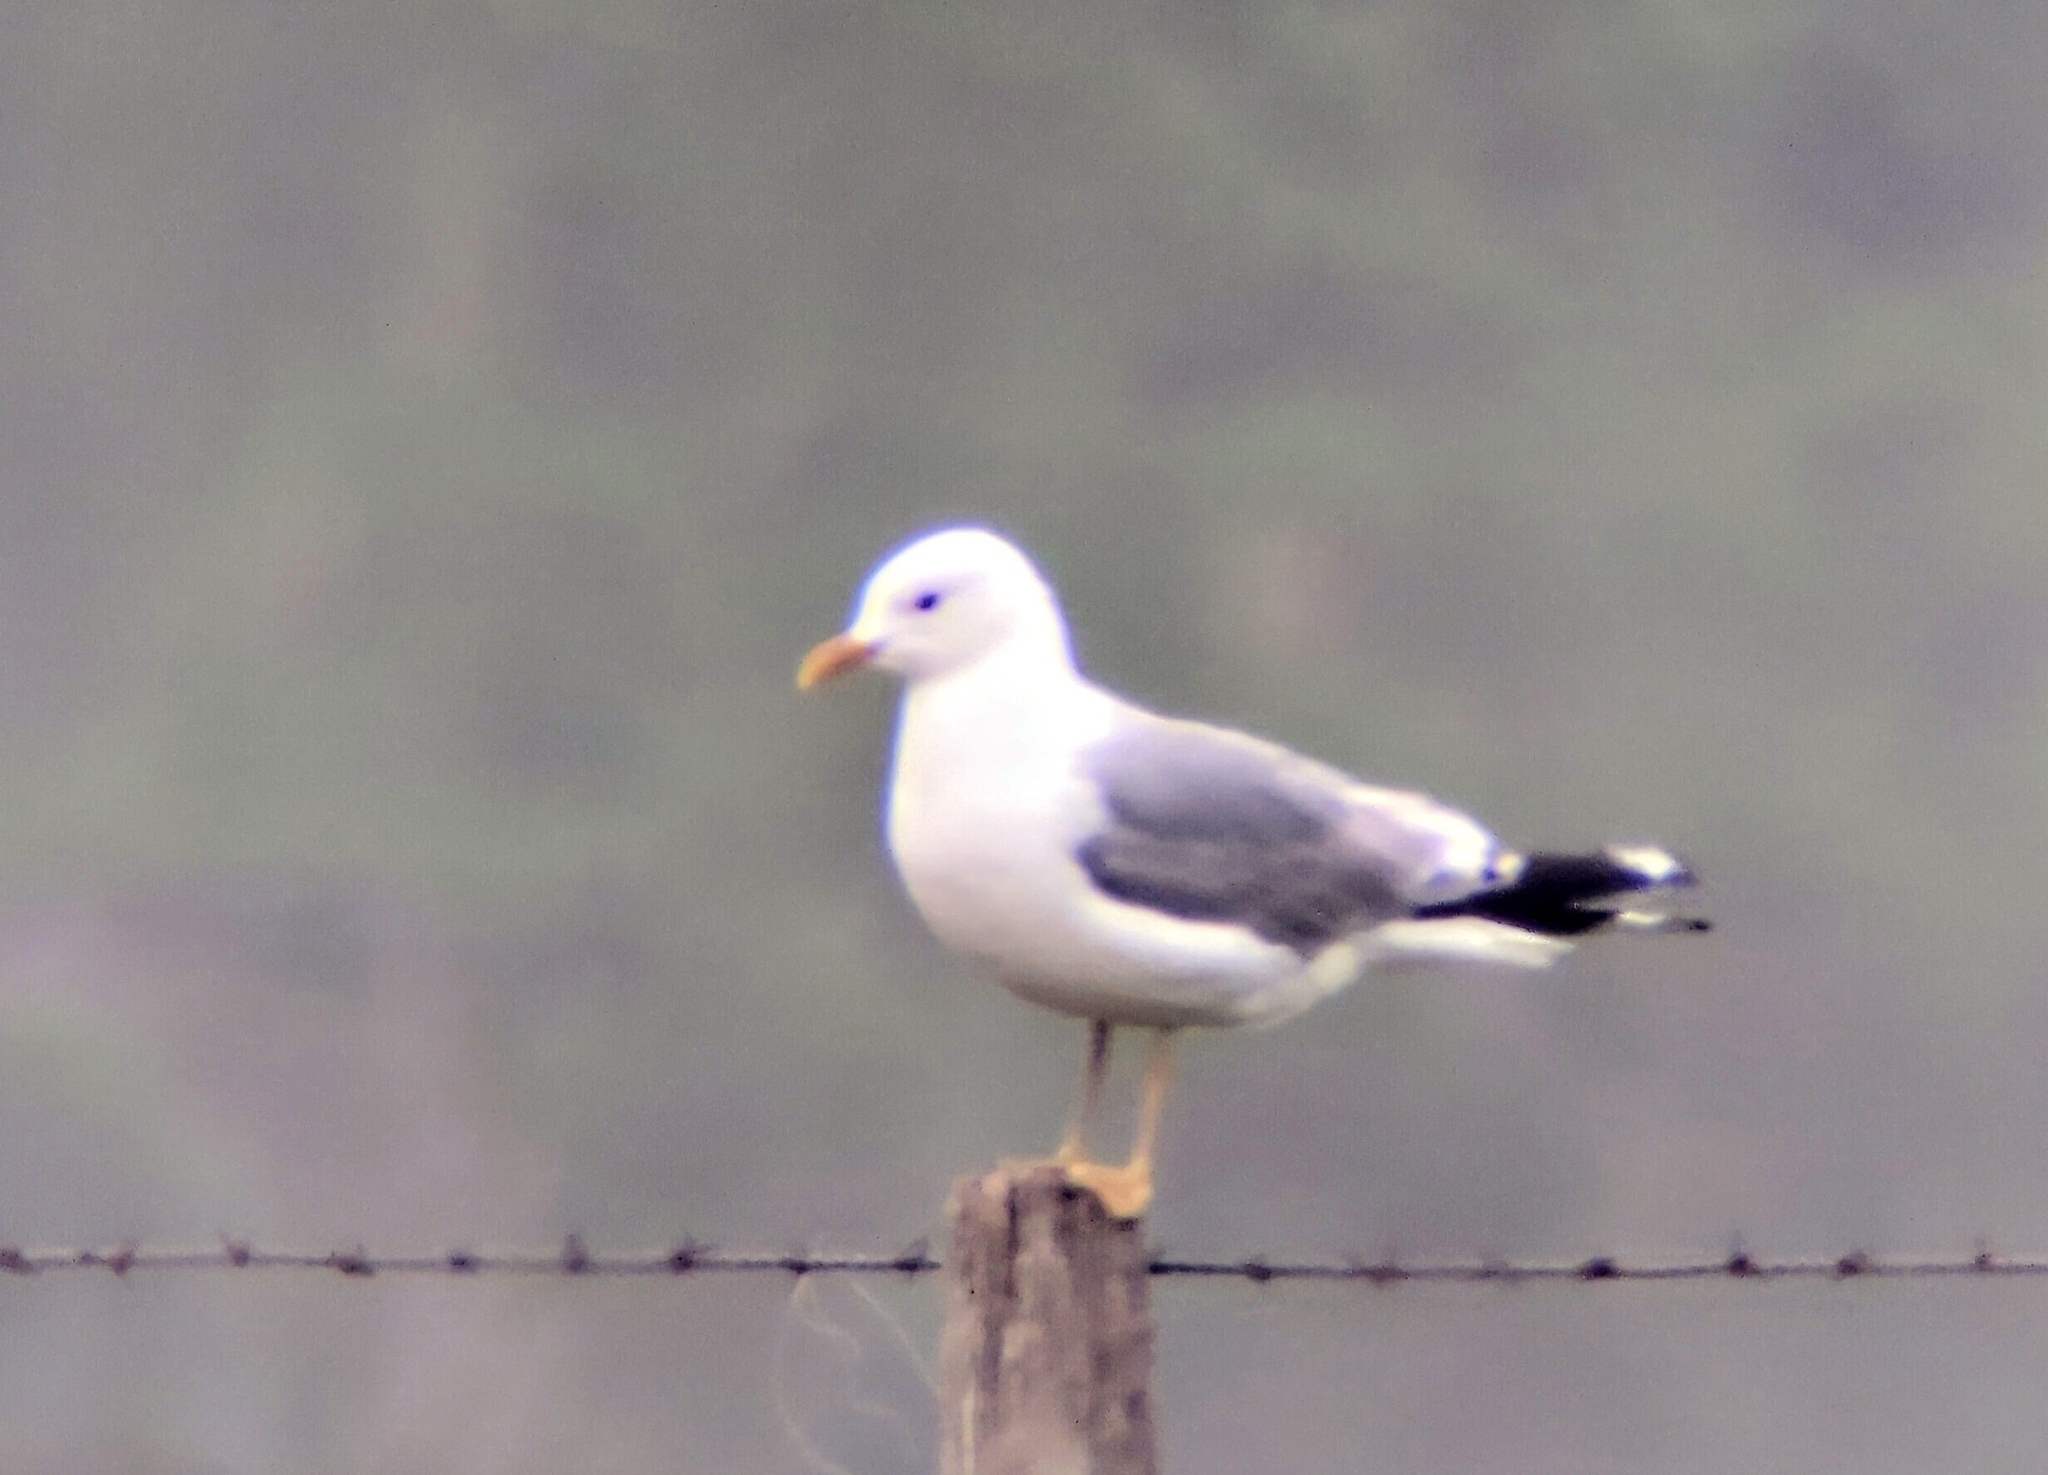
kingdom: Animalia
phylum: Chordata
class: Aves
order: Charadriiformes
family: Laridae
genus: Larus
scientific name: Larus canus
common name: Mew gull
